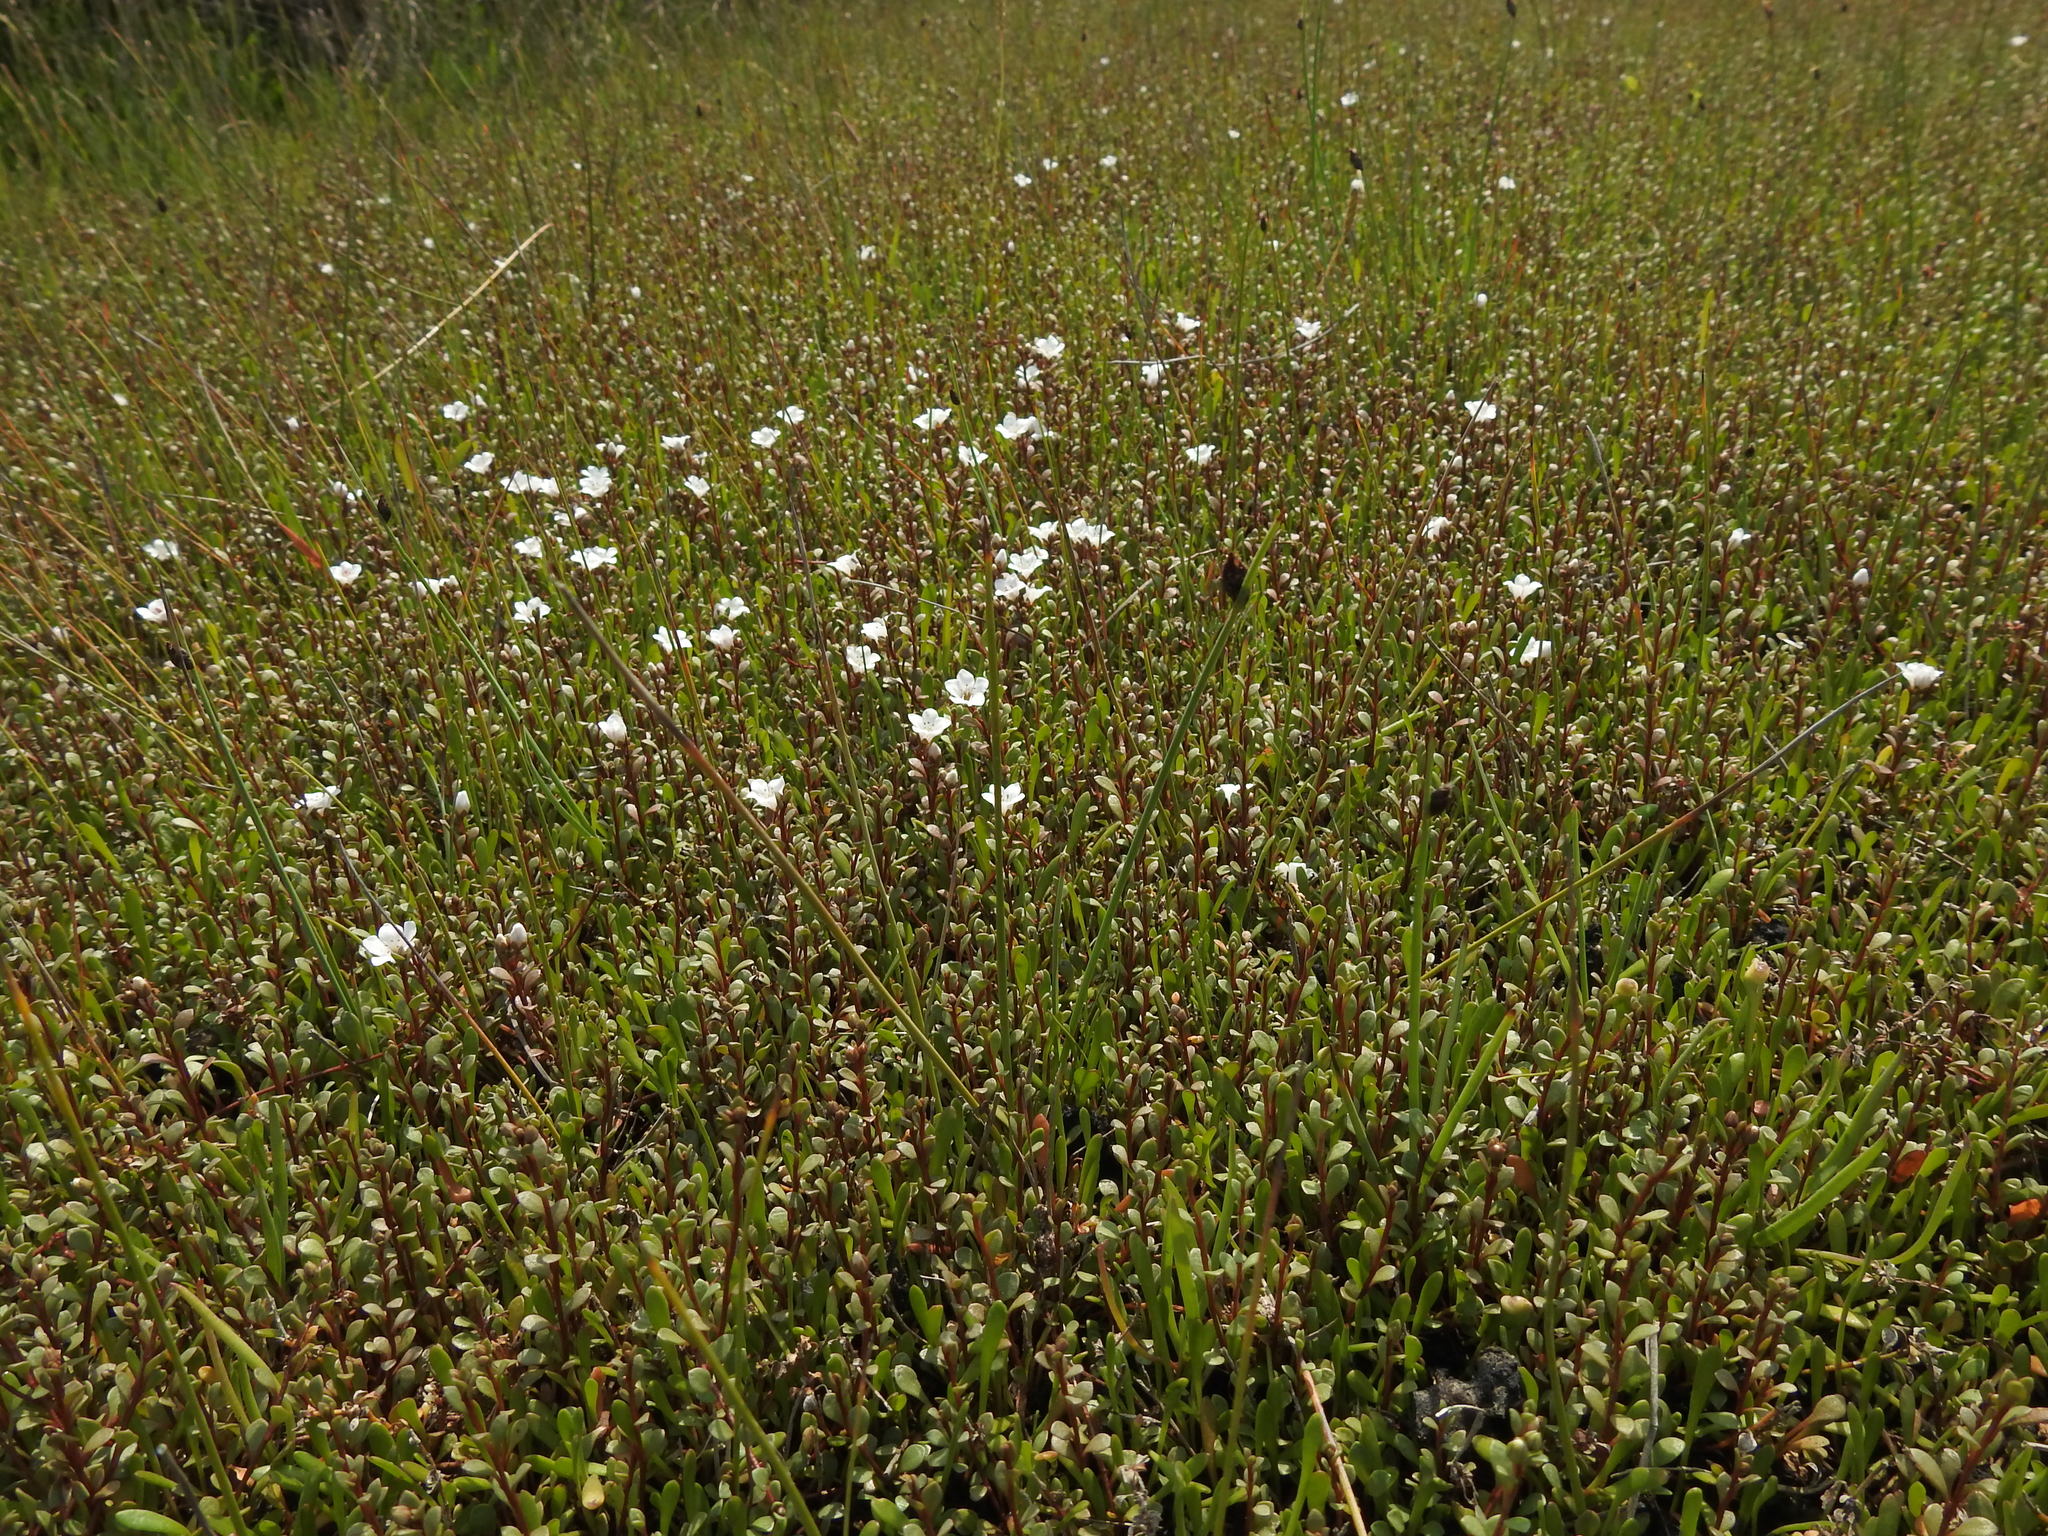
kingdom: Plantae
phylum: Tracheophyta
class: Magnoliopsida
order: Ericales
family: Primulaceae
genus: Samolus
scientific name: Samolus repens
